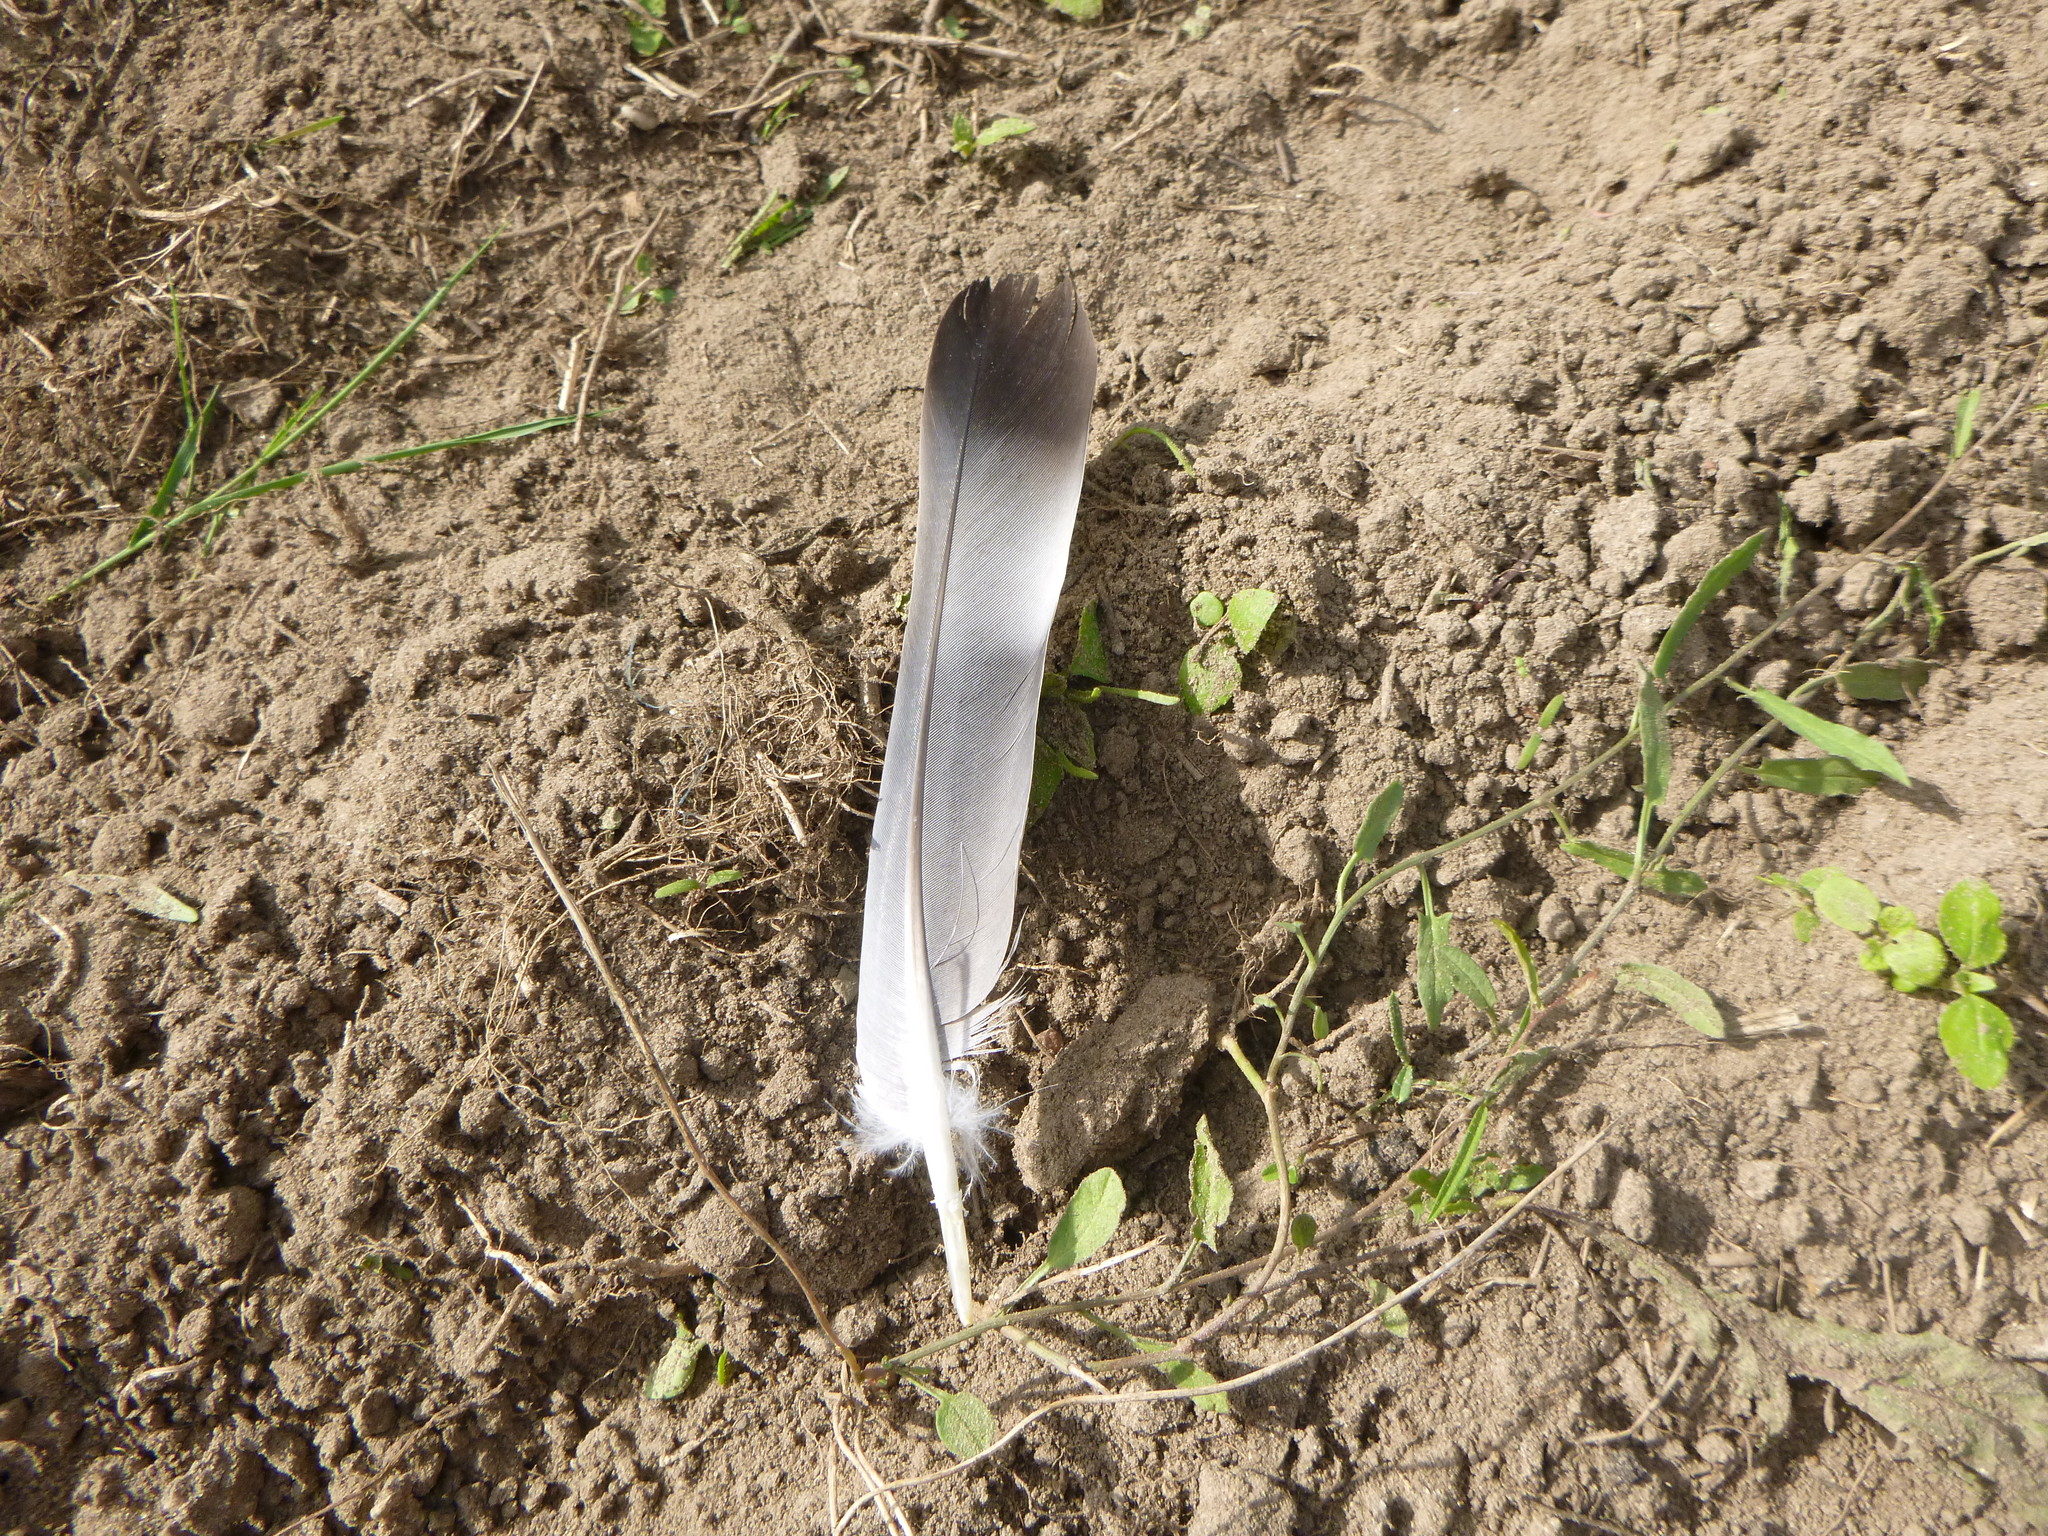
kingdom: Animalia
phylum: Chordata
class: Aves
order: Columbiformes
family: Columbidae
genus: Columba
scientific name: Columba palumbus
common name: Common wood pigeon
